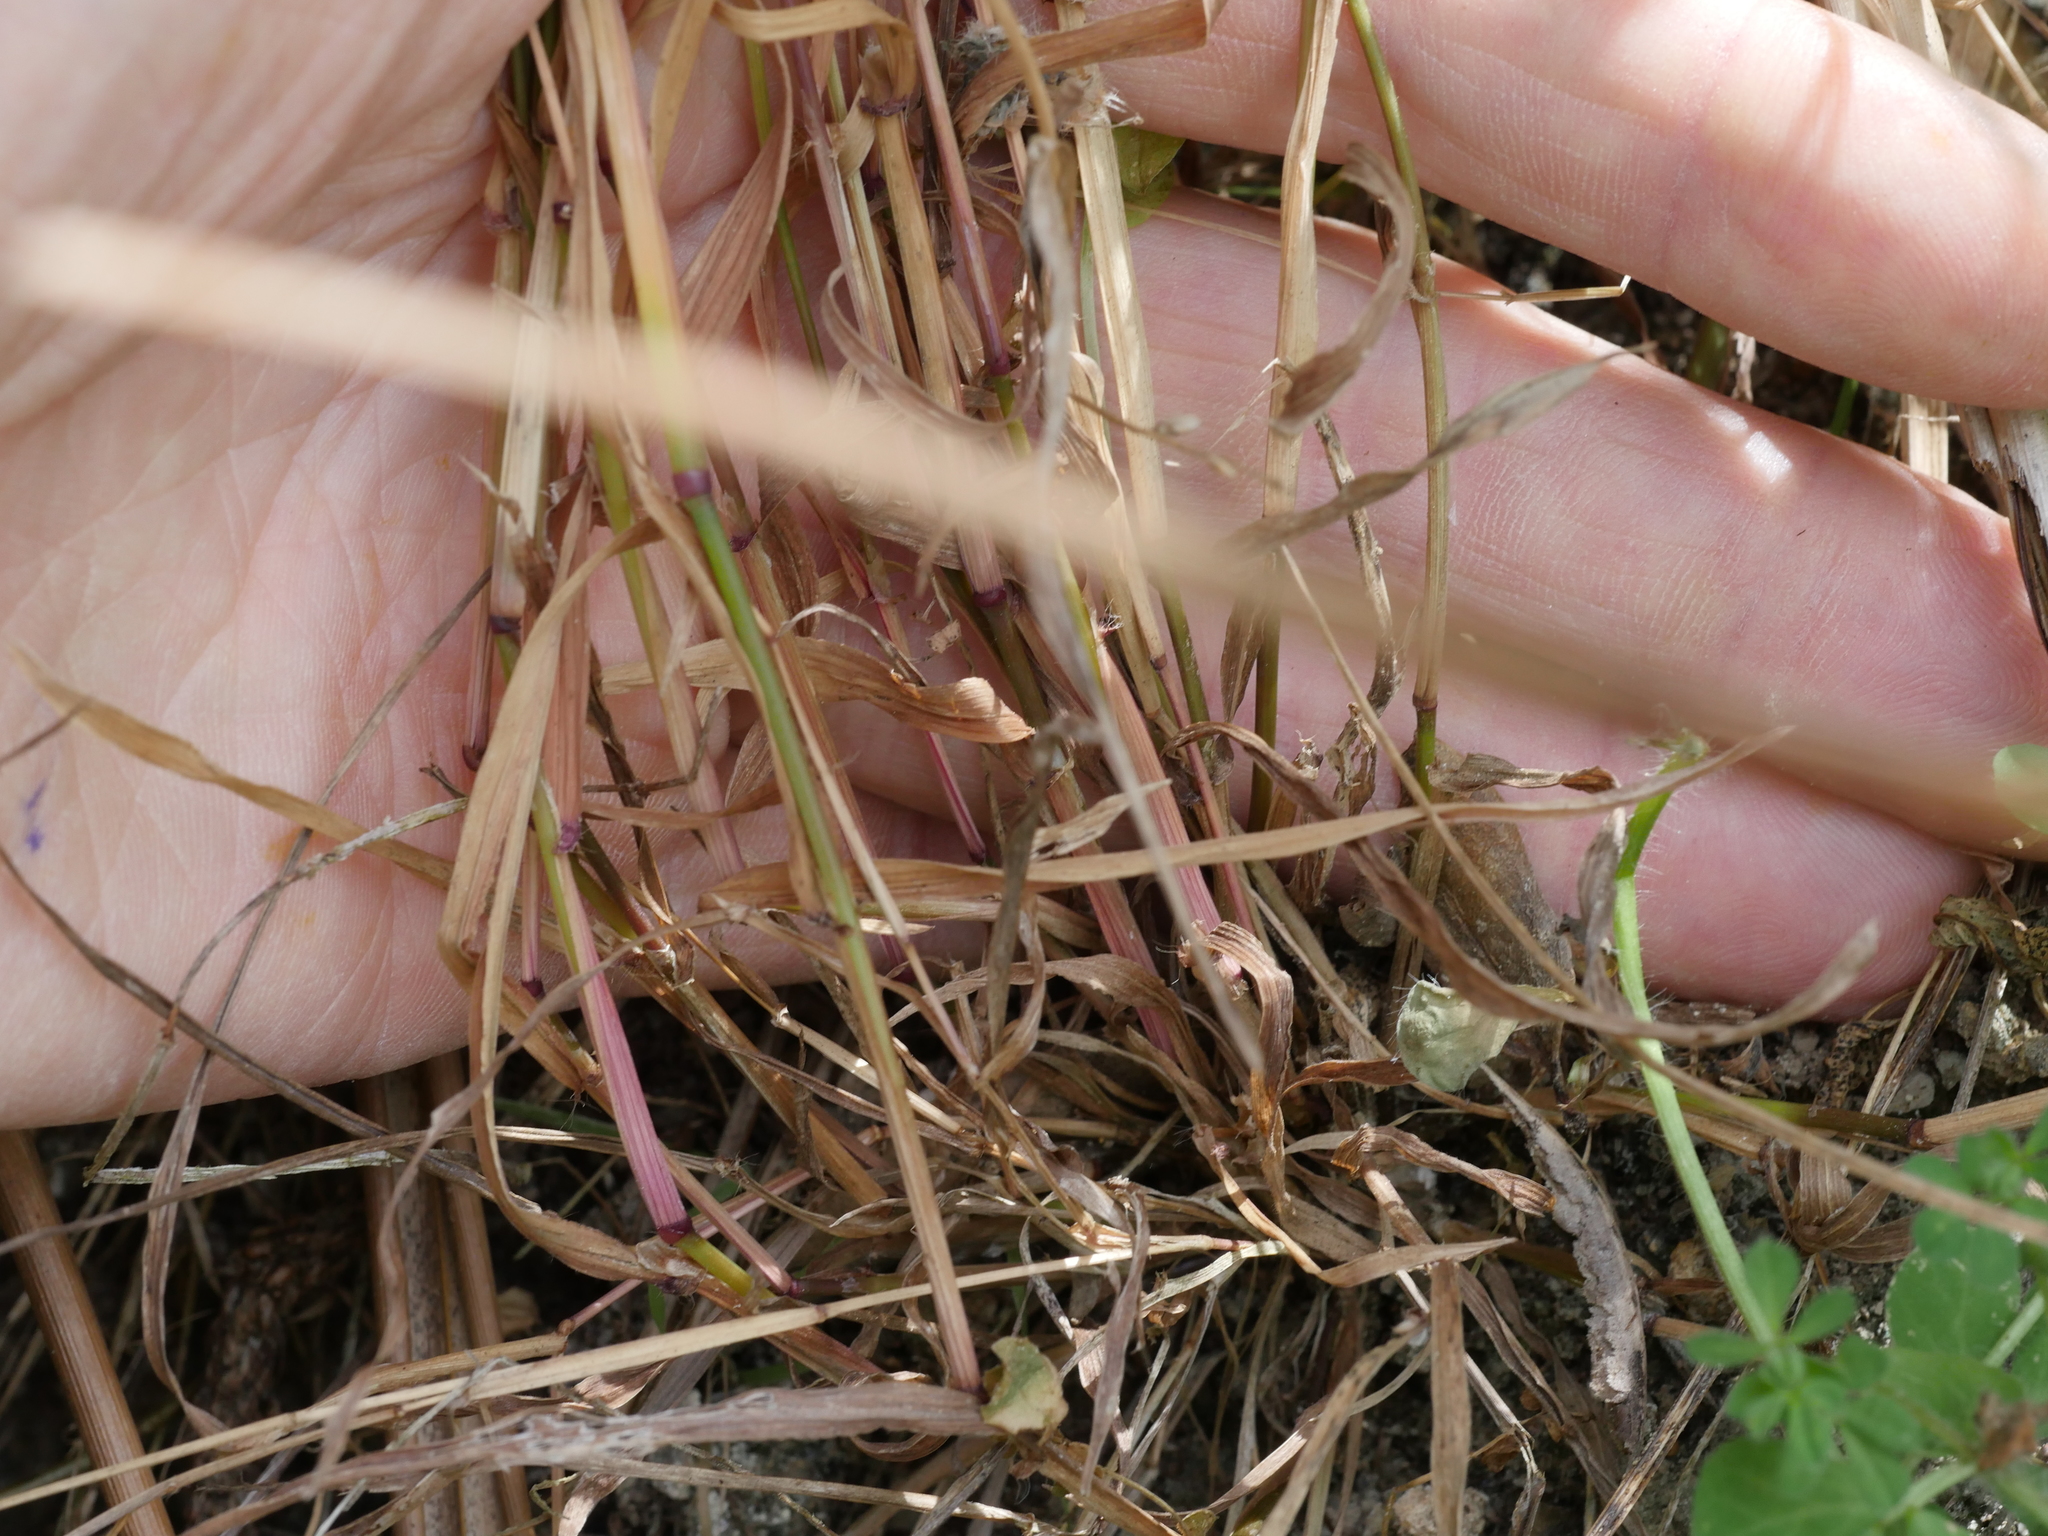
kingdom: Plantae
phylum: Tracheophyta
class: Liliopsida
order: Poales
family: Poaceae
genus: Ehrharta
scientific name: Ehrharta erecta
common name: Panic veldtgrass
